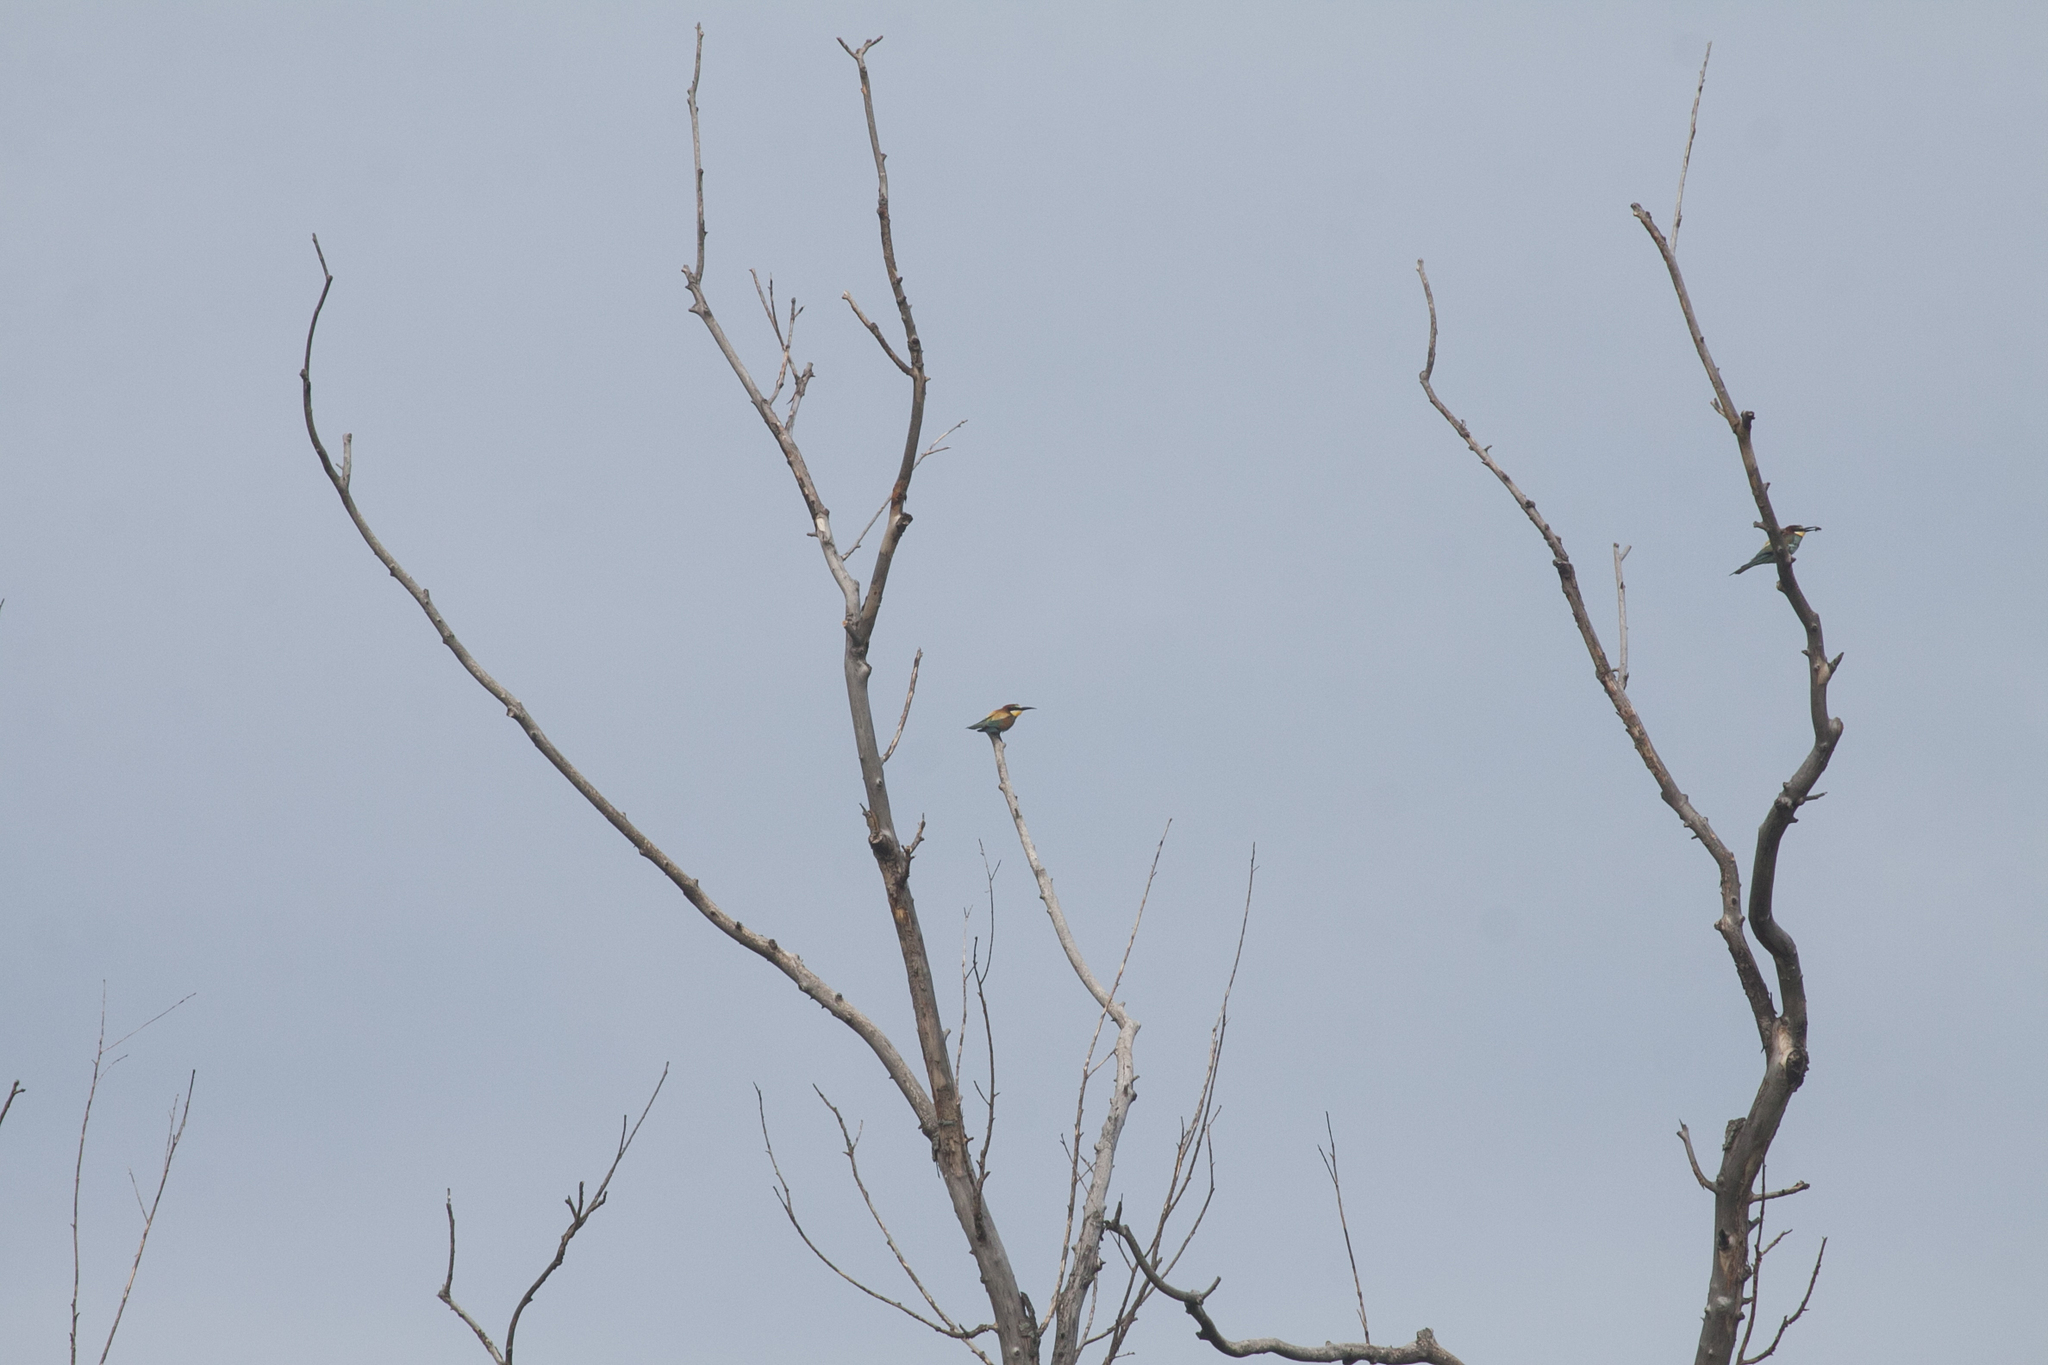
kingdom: Animalia
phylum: Chordata
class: Aves
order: Coraciiformes
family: Meropidae
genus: Merops
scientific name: Merops apiaster
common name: European bee-eater
